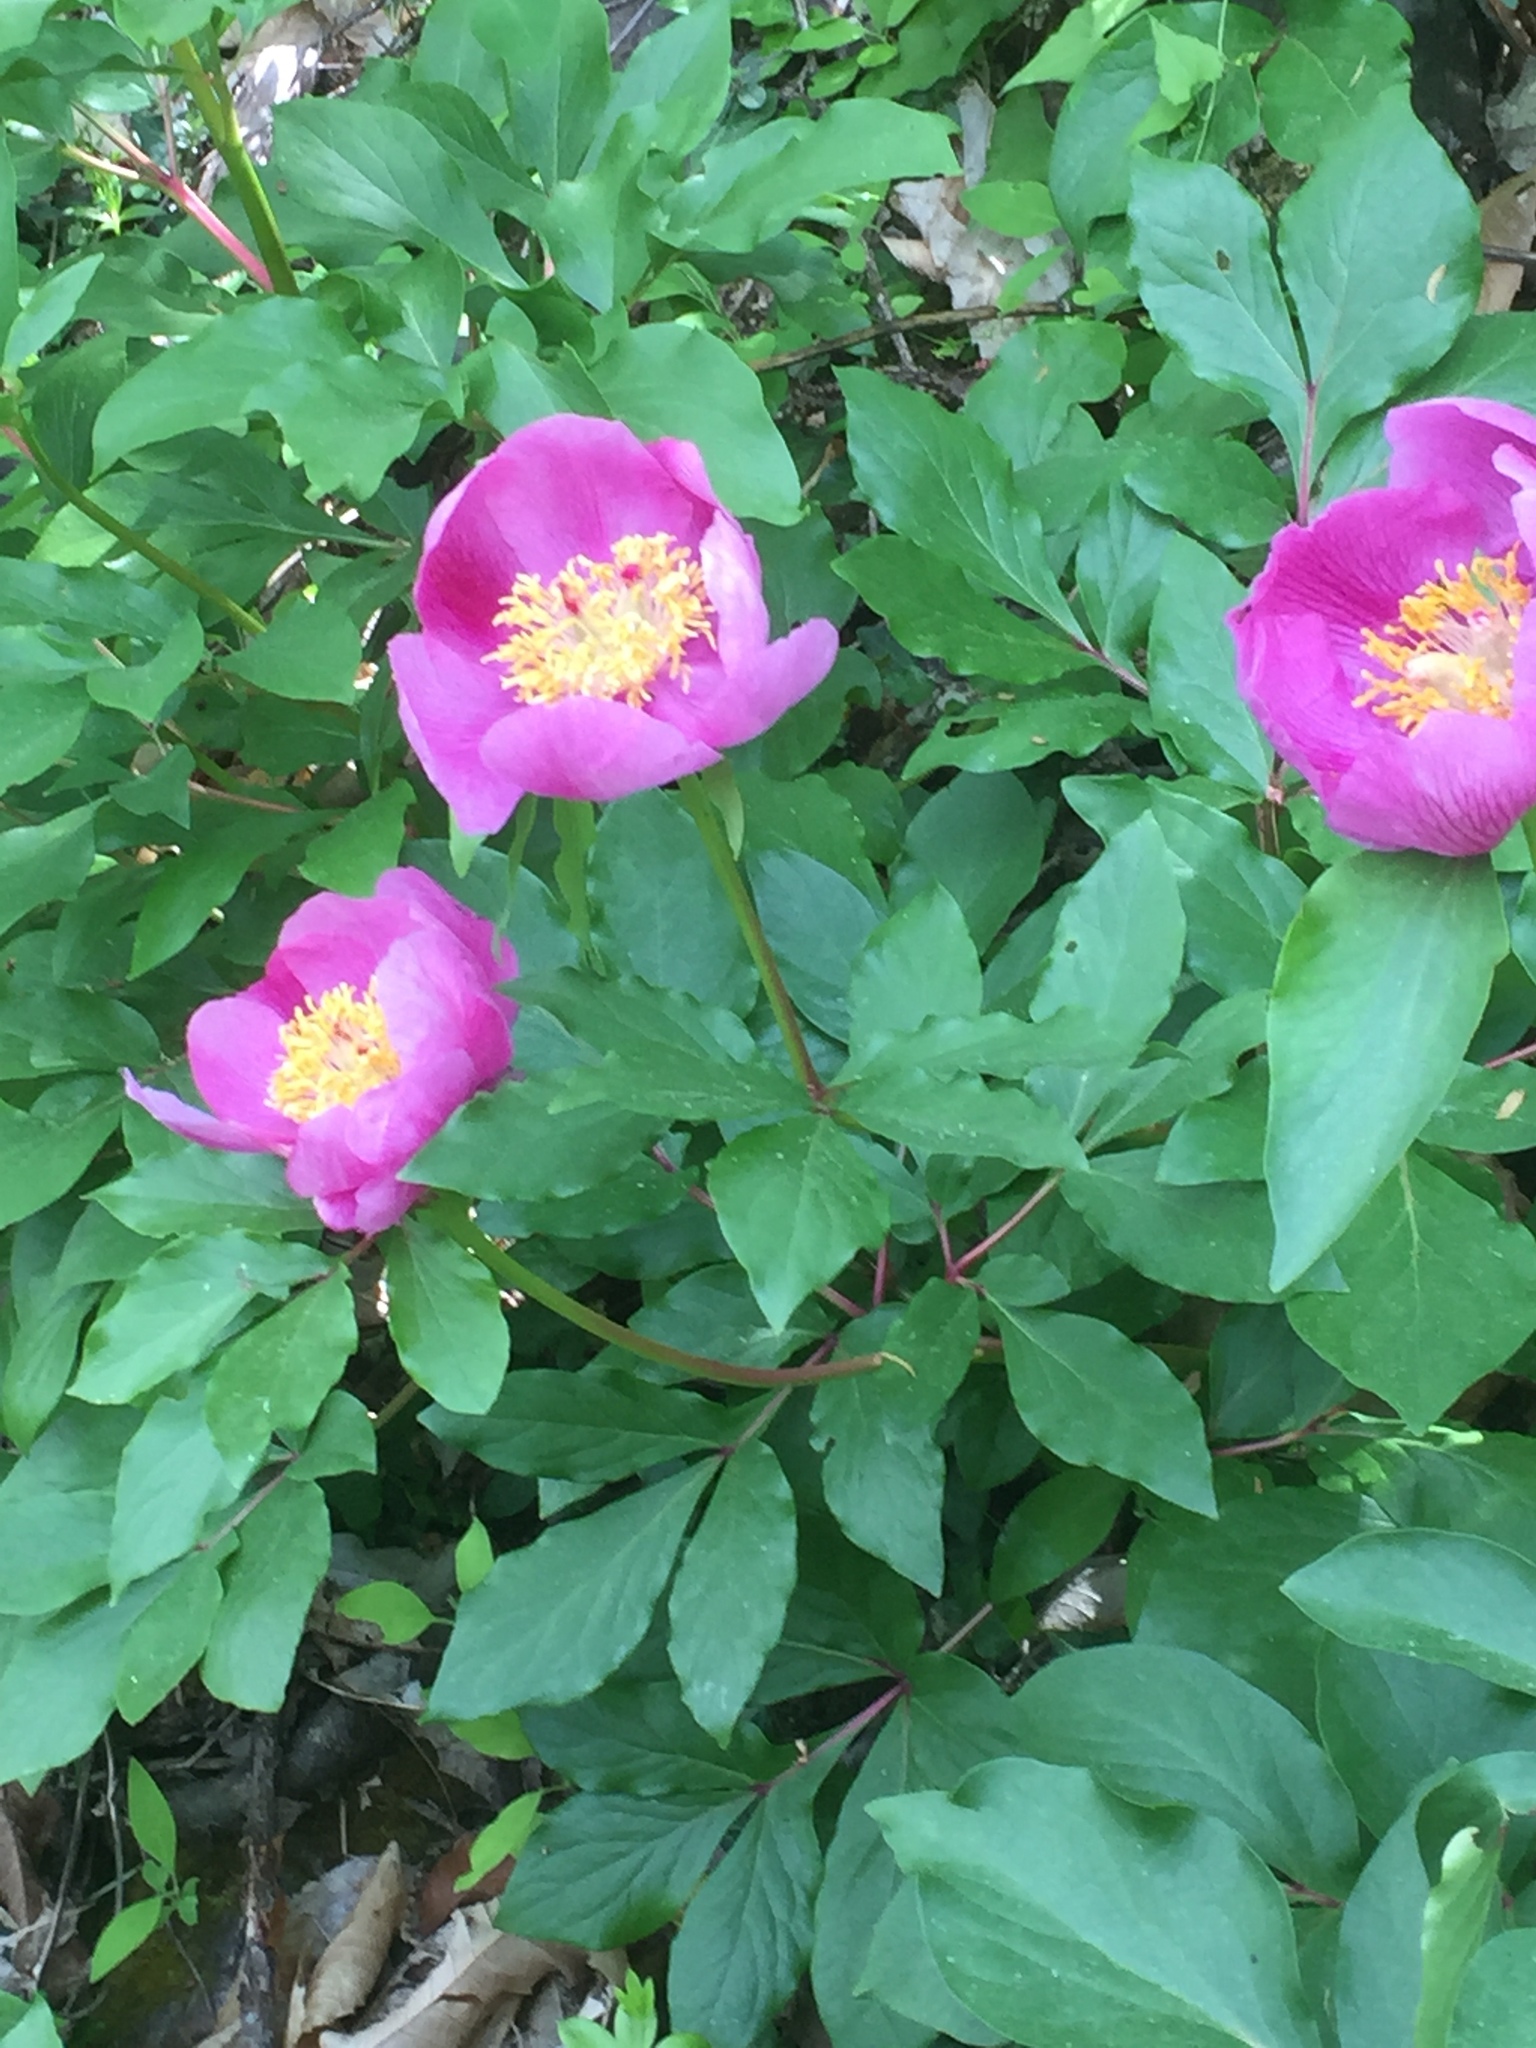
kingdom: Plantae
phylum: Tracheophyta
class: Magnoliopsida
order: Saxifragales
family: Paeoniaceae
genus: Paeonia
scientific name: Paeonia broteroi
